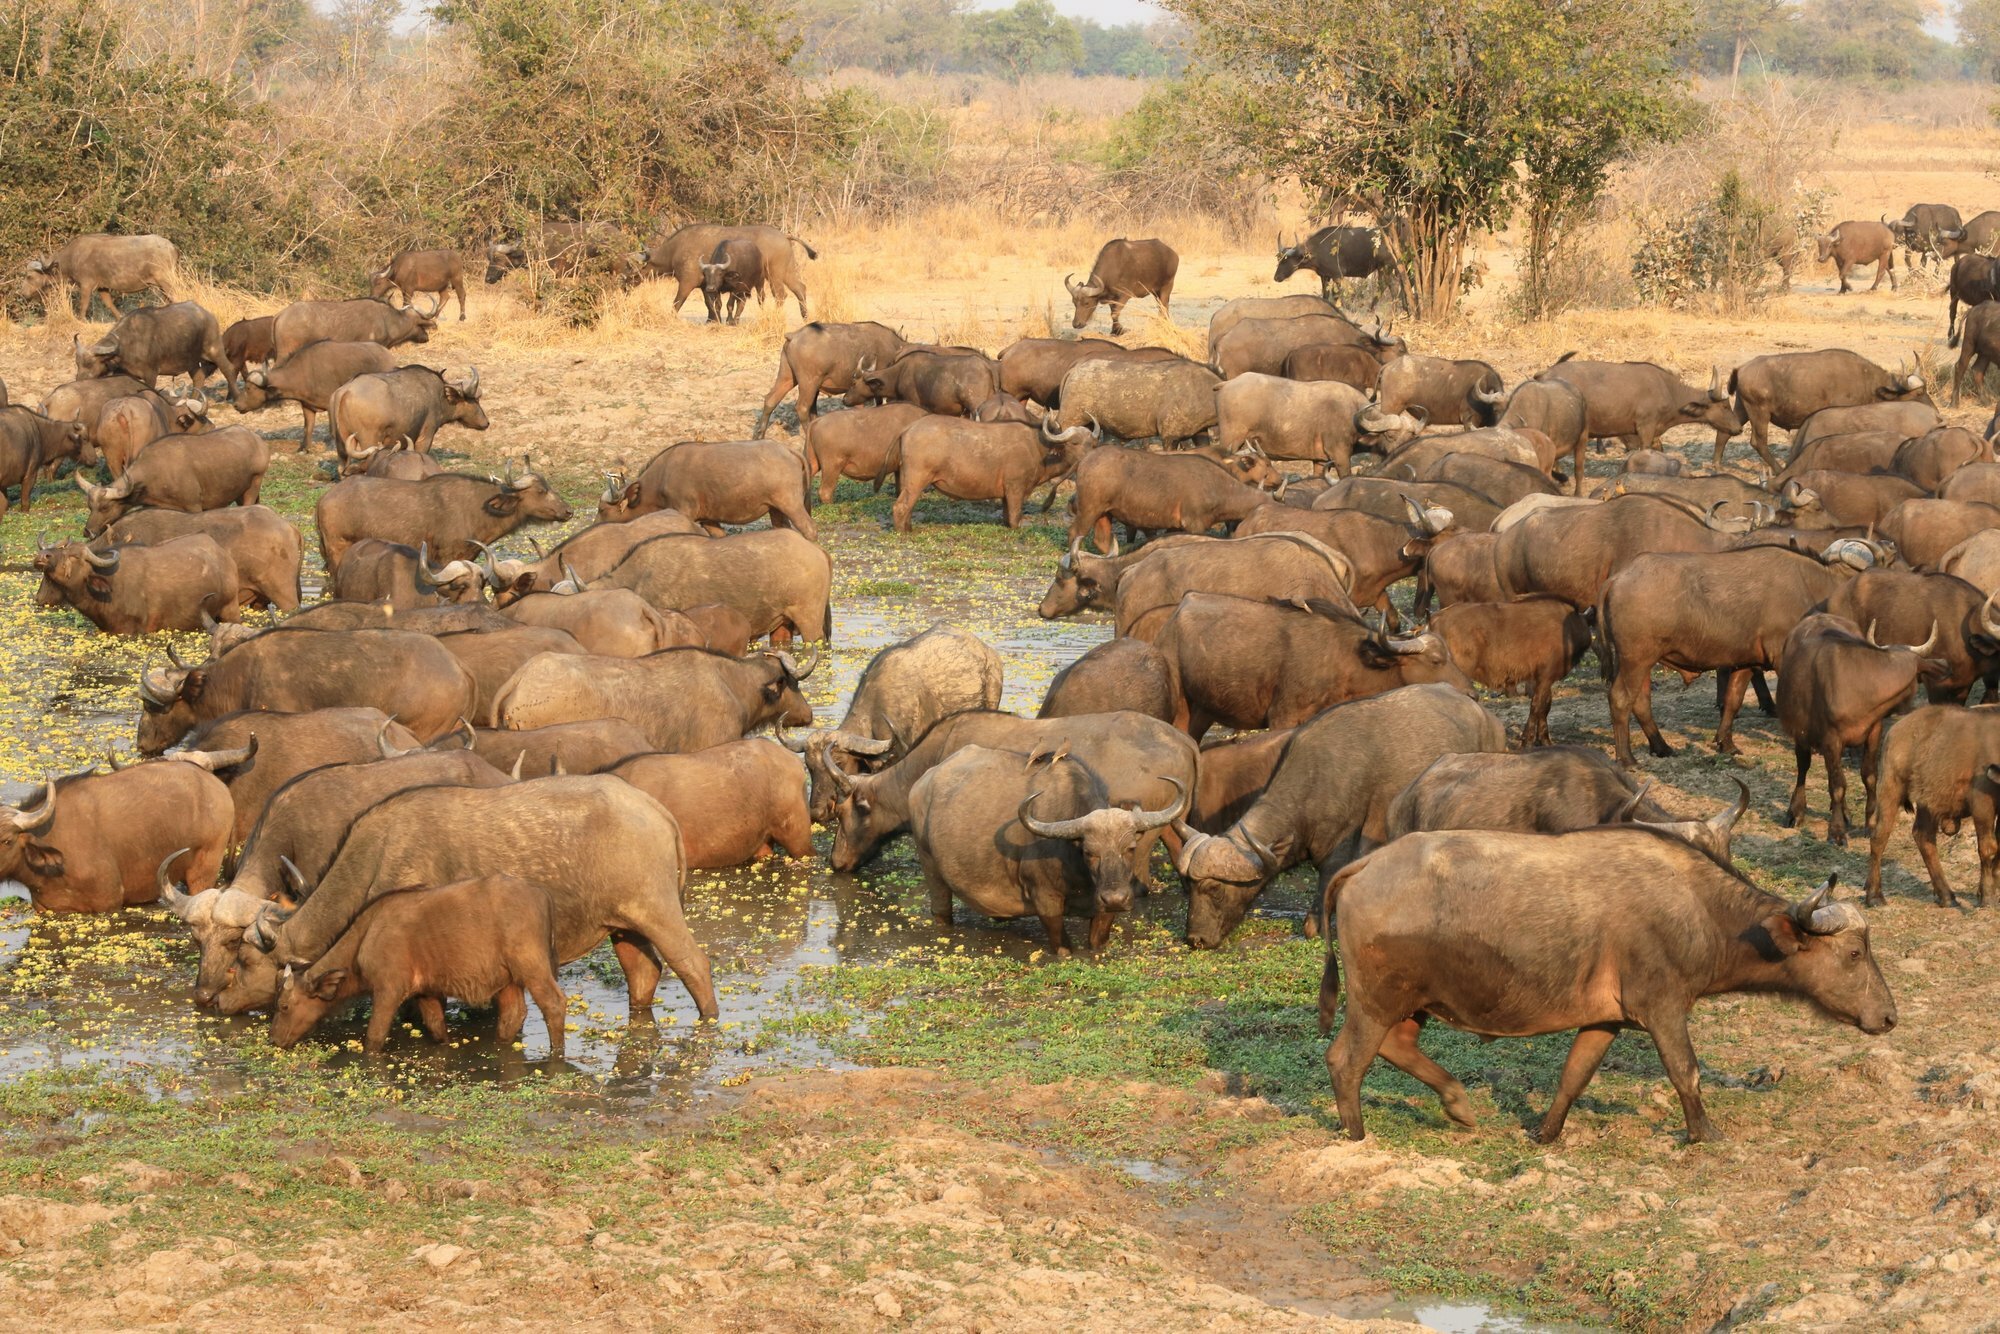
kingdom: Animalia
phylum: Chordata
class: Mammalia
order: Artiodactyla
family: Bovidae
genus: Syncerus
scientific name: Syncerus caffer
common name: African buffalo
